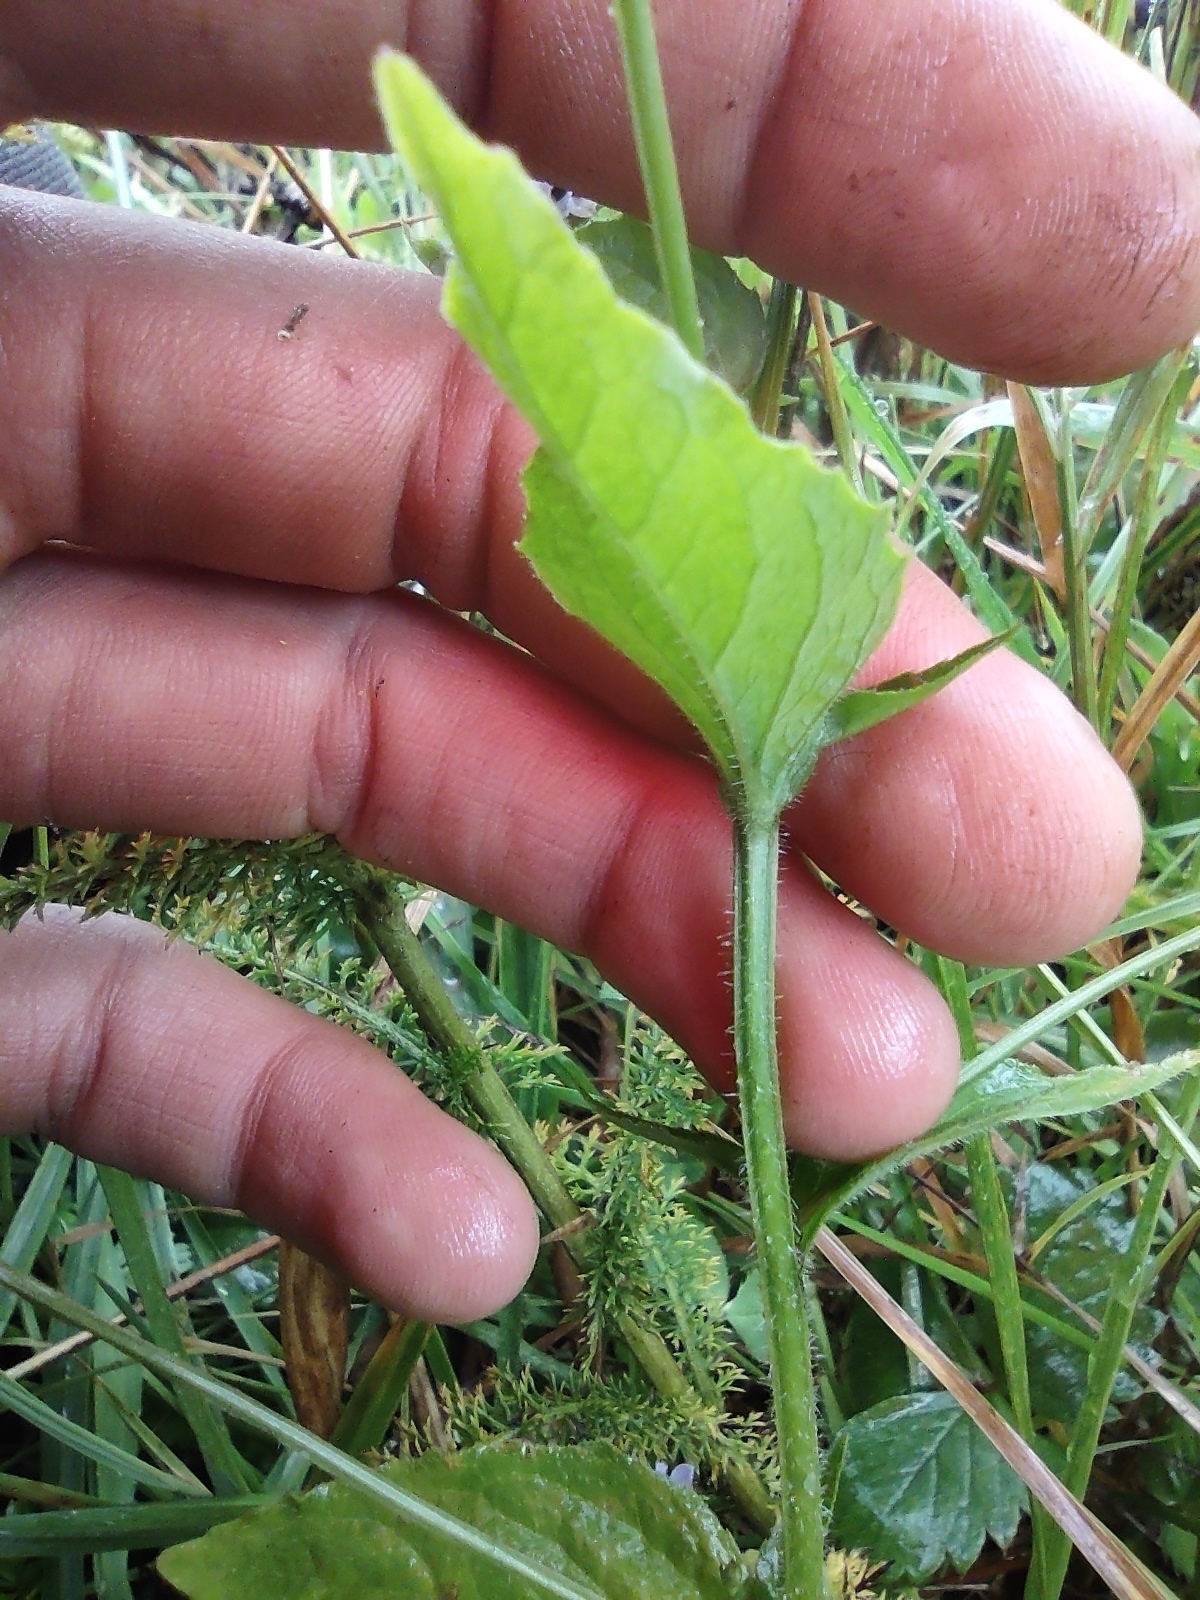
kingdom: Plantae
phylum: Tracheophyta
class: Magnoliopsida
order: Asterales
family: Campanulaceae
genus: Lobelia
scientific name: Lobelia inflata
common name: Indian tobacco
